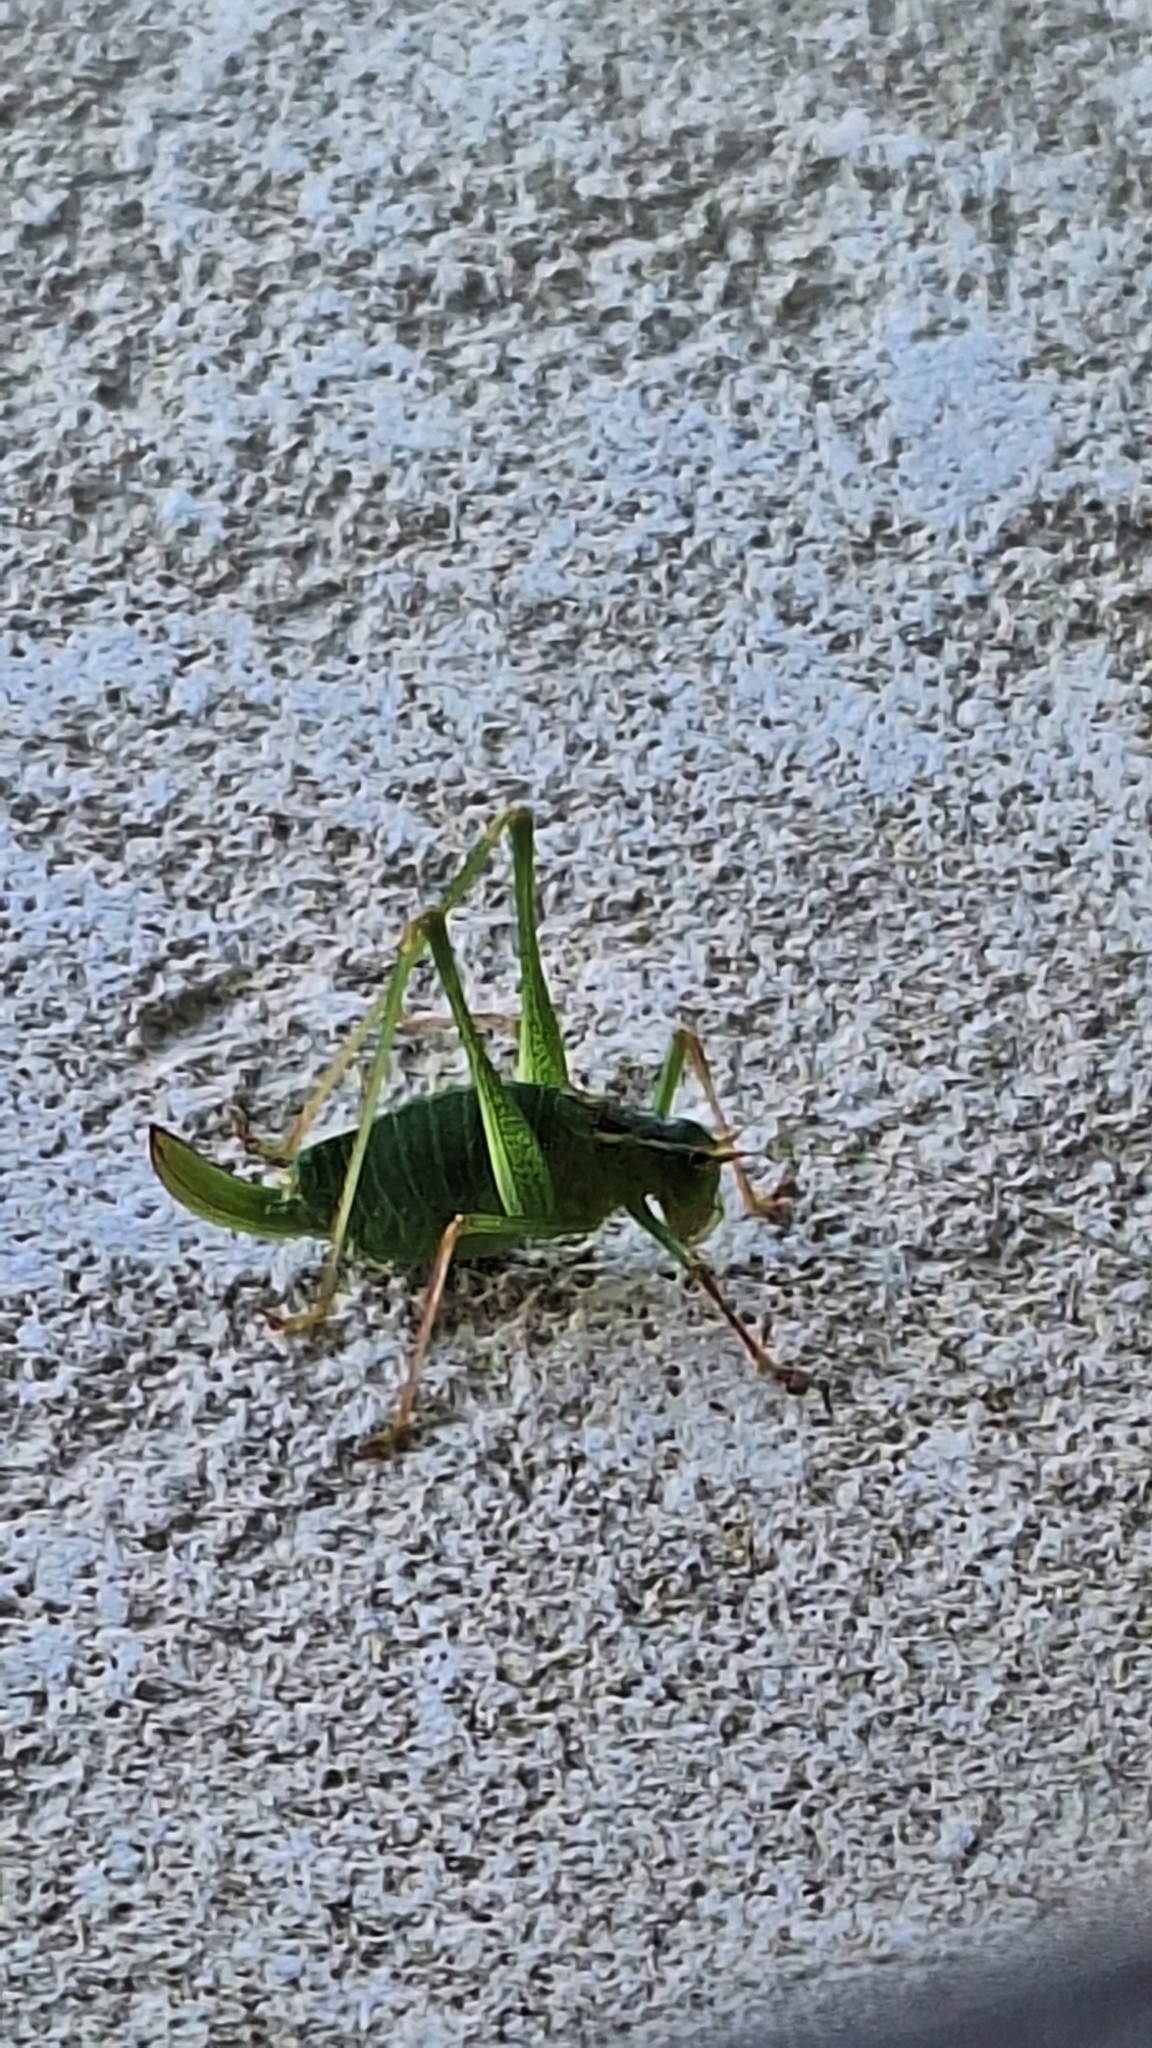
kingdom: Animalia
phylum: Arthropoda
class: Insecta
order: Orthoptera
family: Tettigoniidae
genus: Leptophyes
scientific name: Leptophyes punctatissima
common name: Speckled bush-cricket
